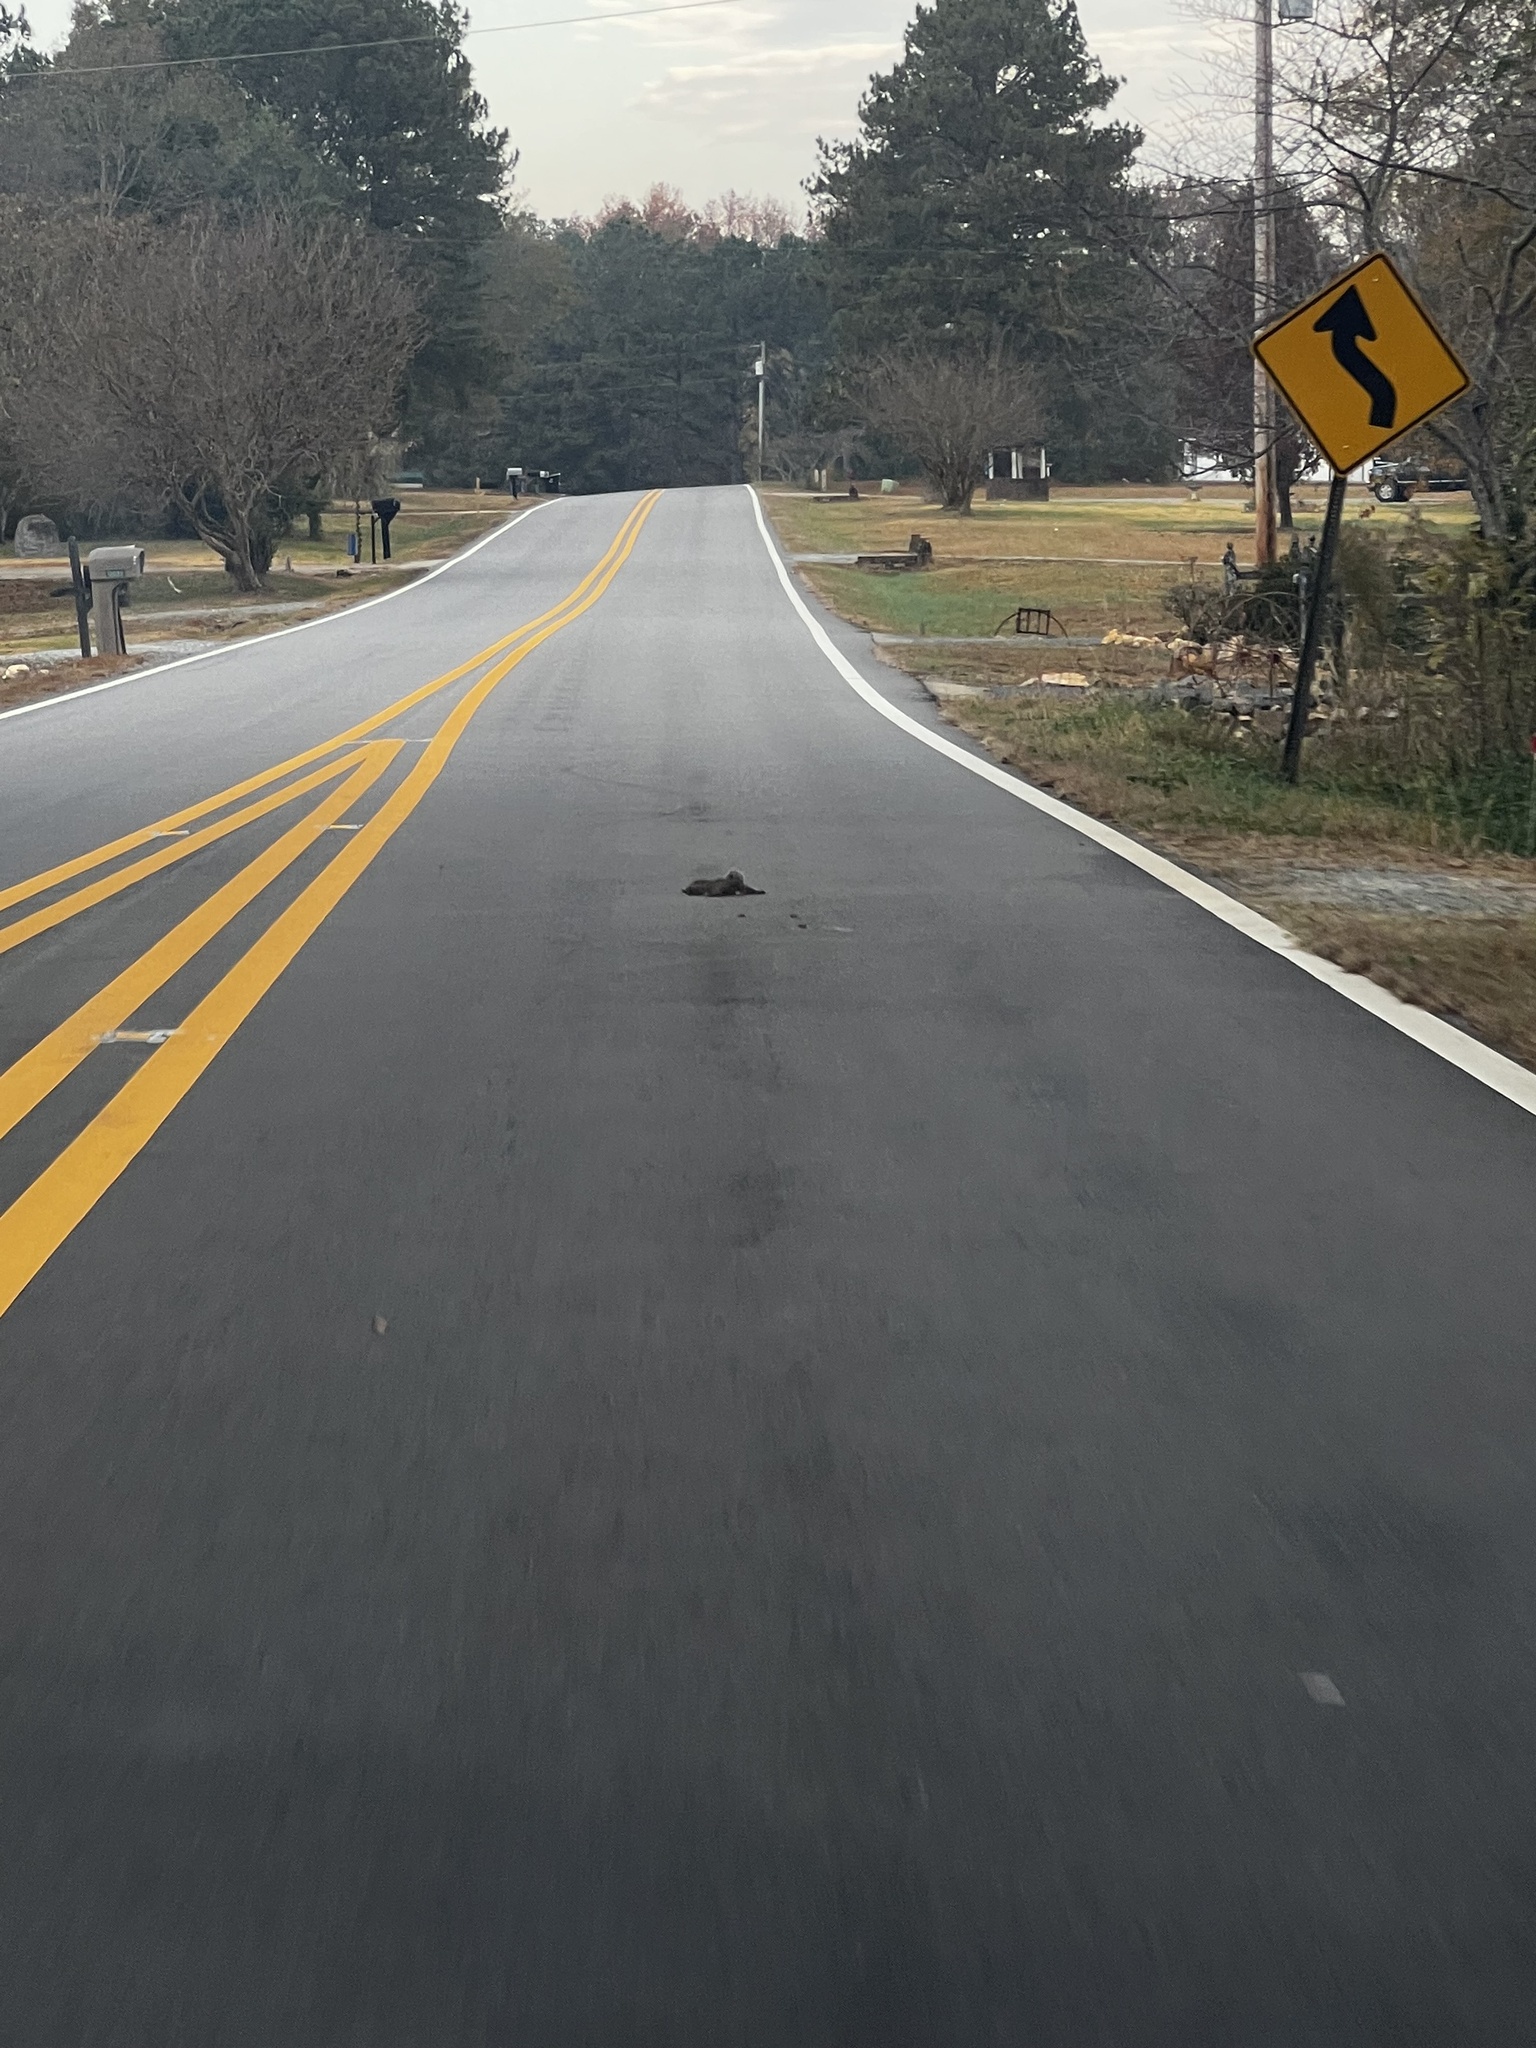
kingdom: Animalia
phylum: Chordata
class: Mammalia
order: Rodentia
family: Sciuridae
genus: Sciurus
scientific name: Sciurus carolinensis
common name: Eastern gray squirrel
